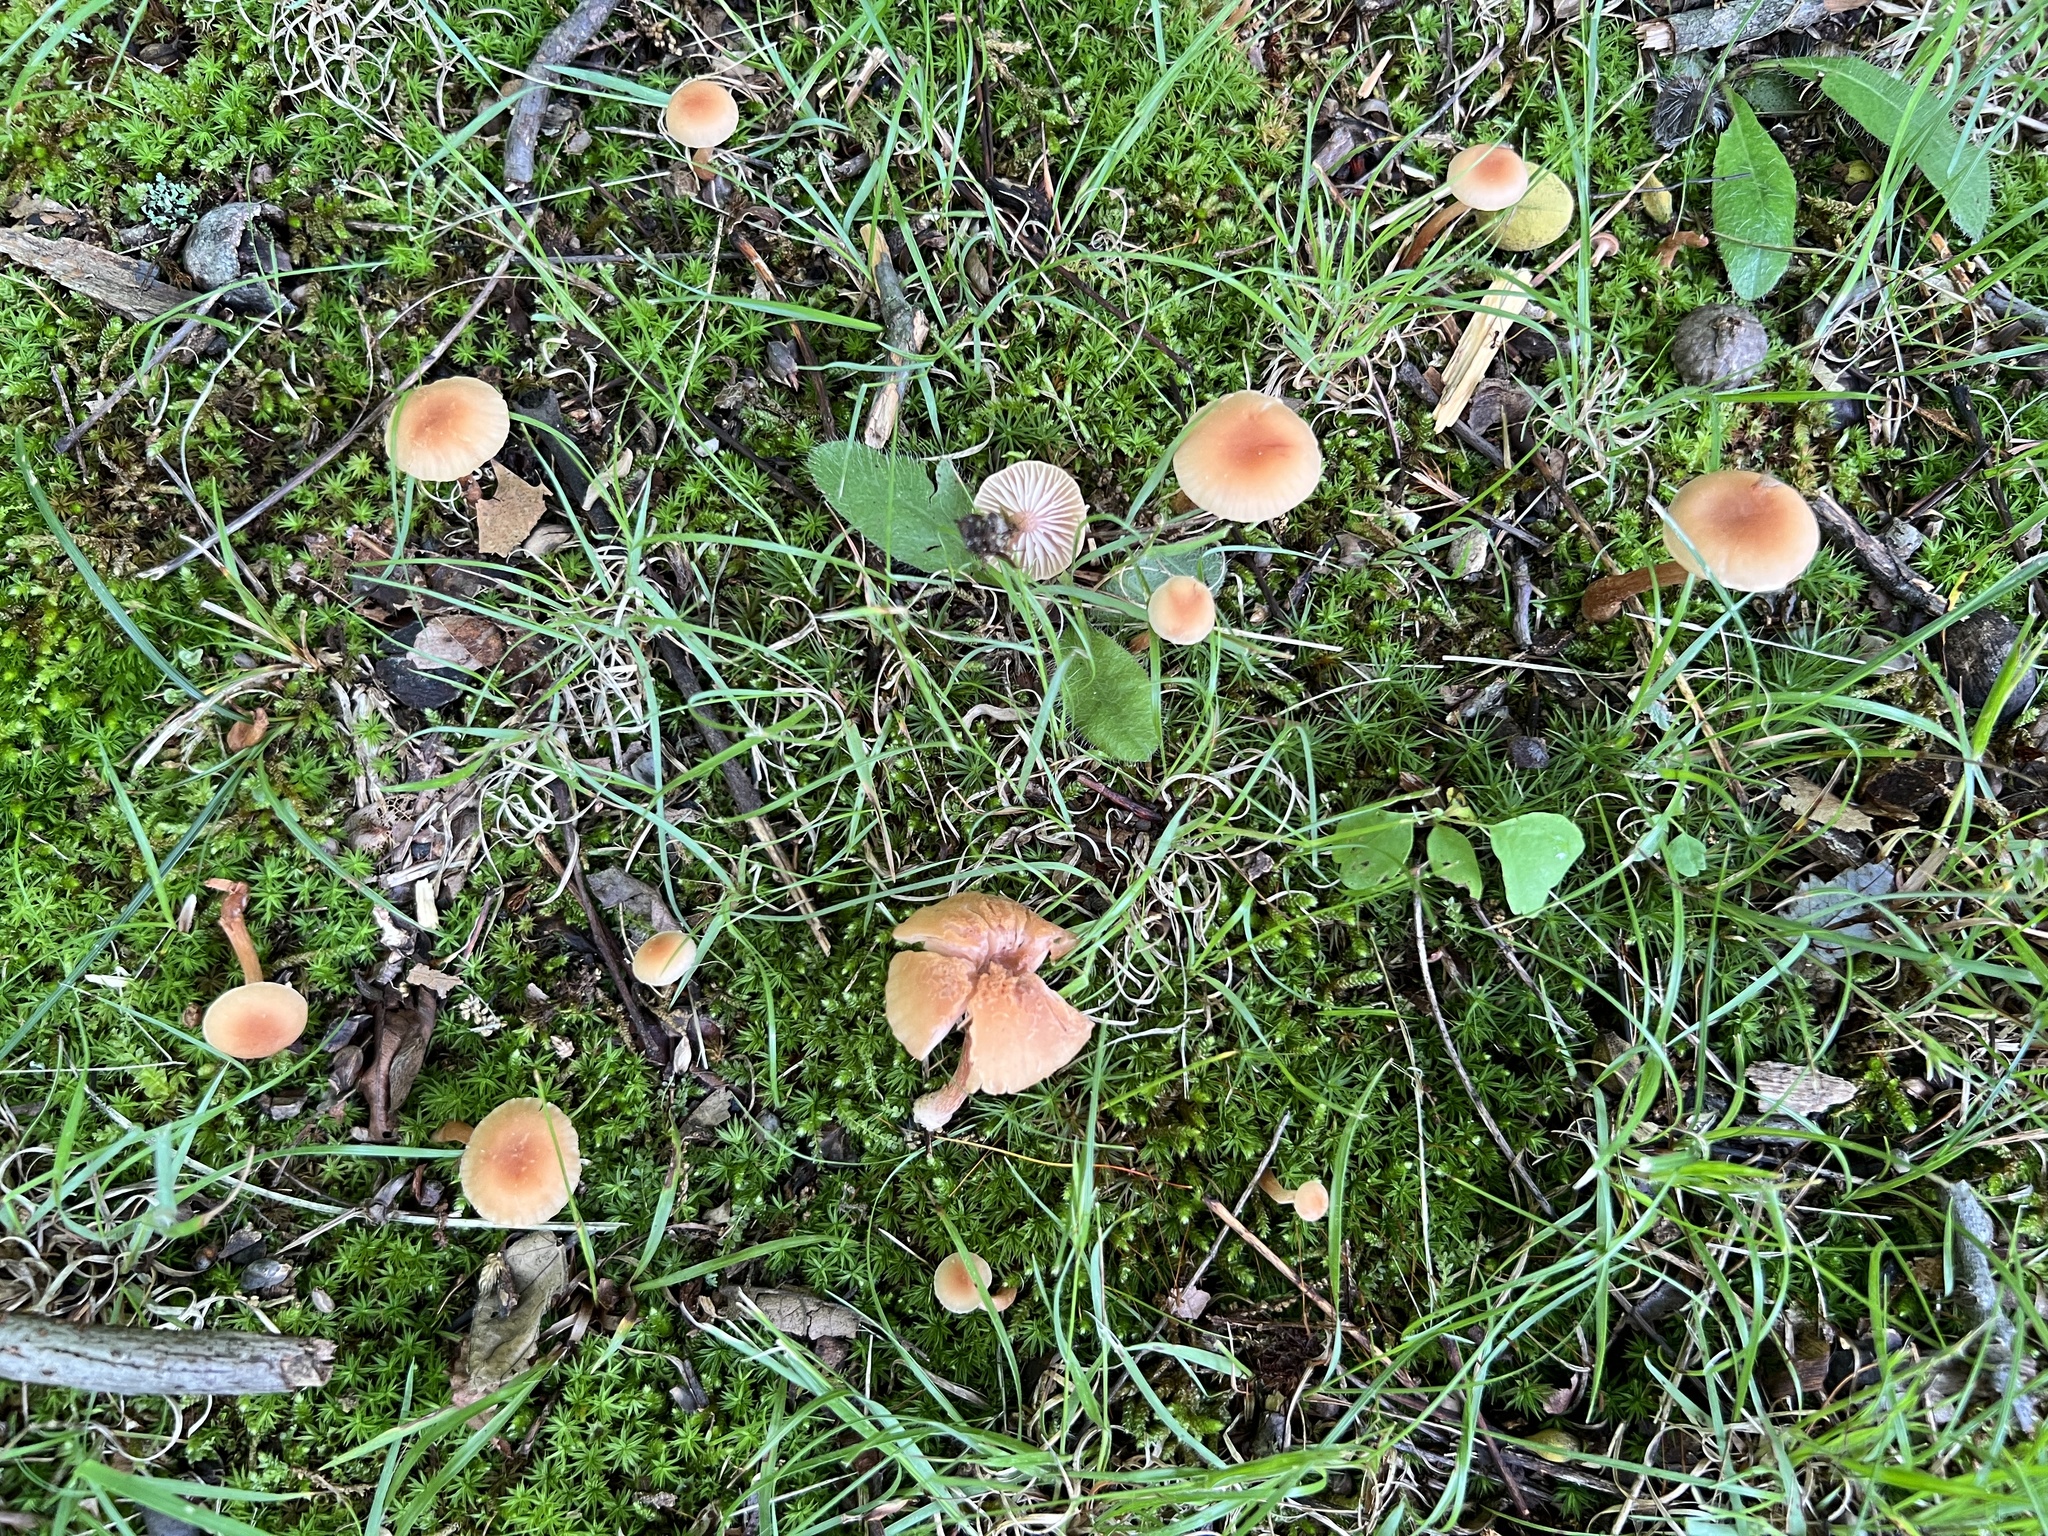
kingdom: Fungi
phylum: Basidiomycota
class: Agaricomycetes
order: Agaricales
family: Hydnangiaceae
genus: Laccaria
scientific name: Laccaria laccata
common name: Deceiver
